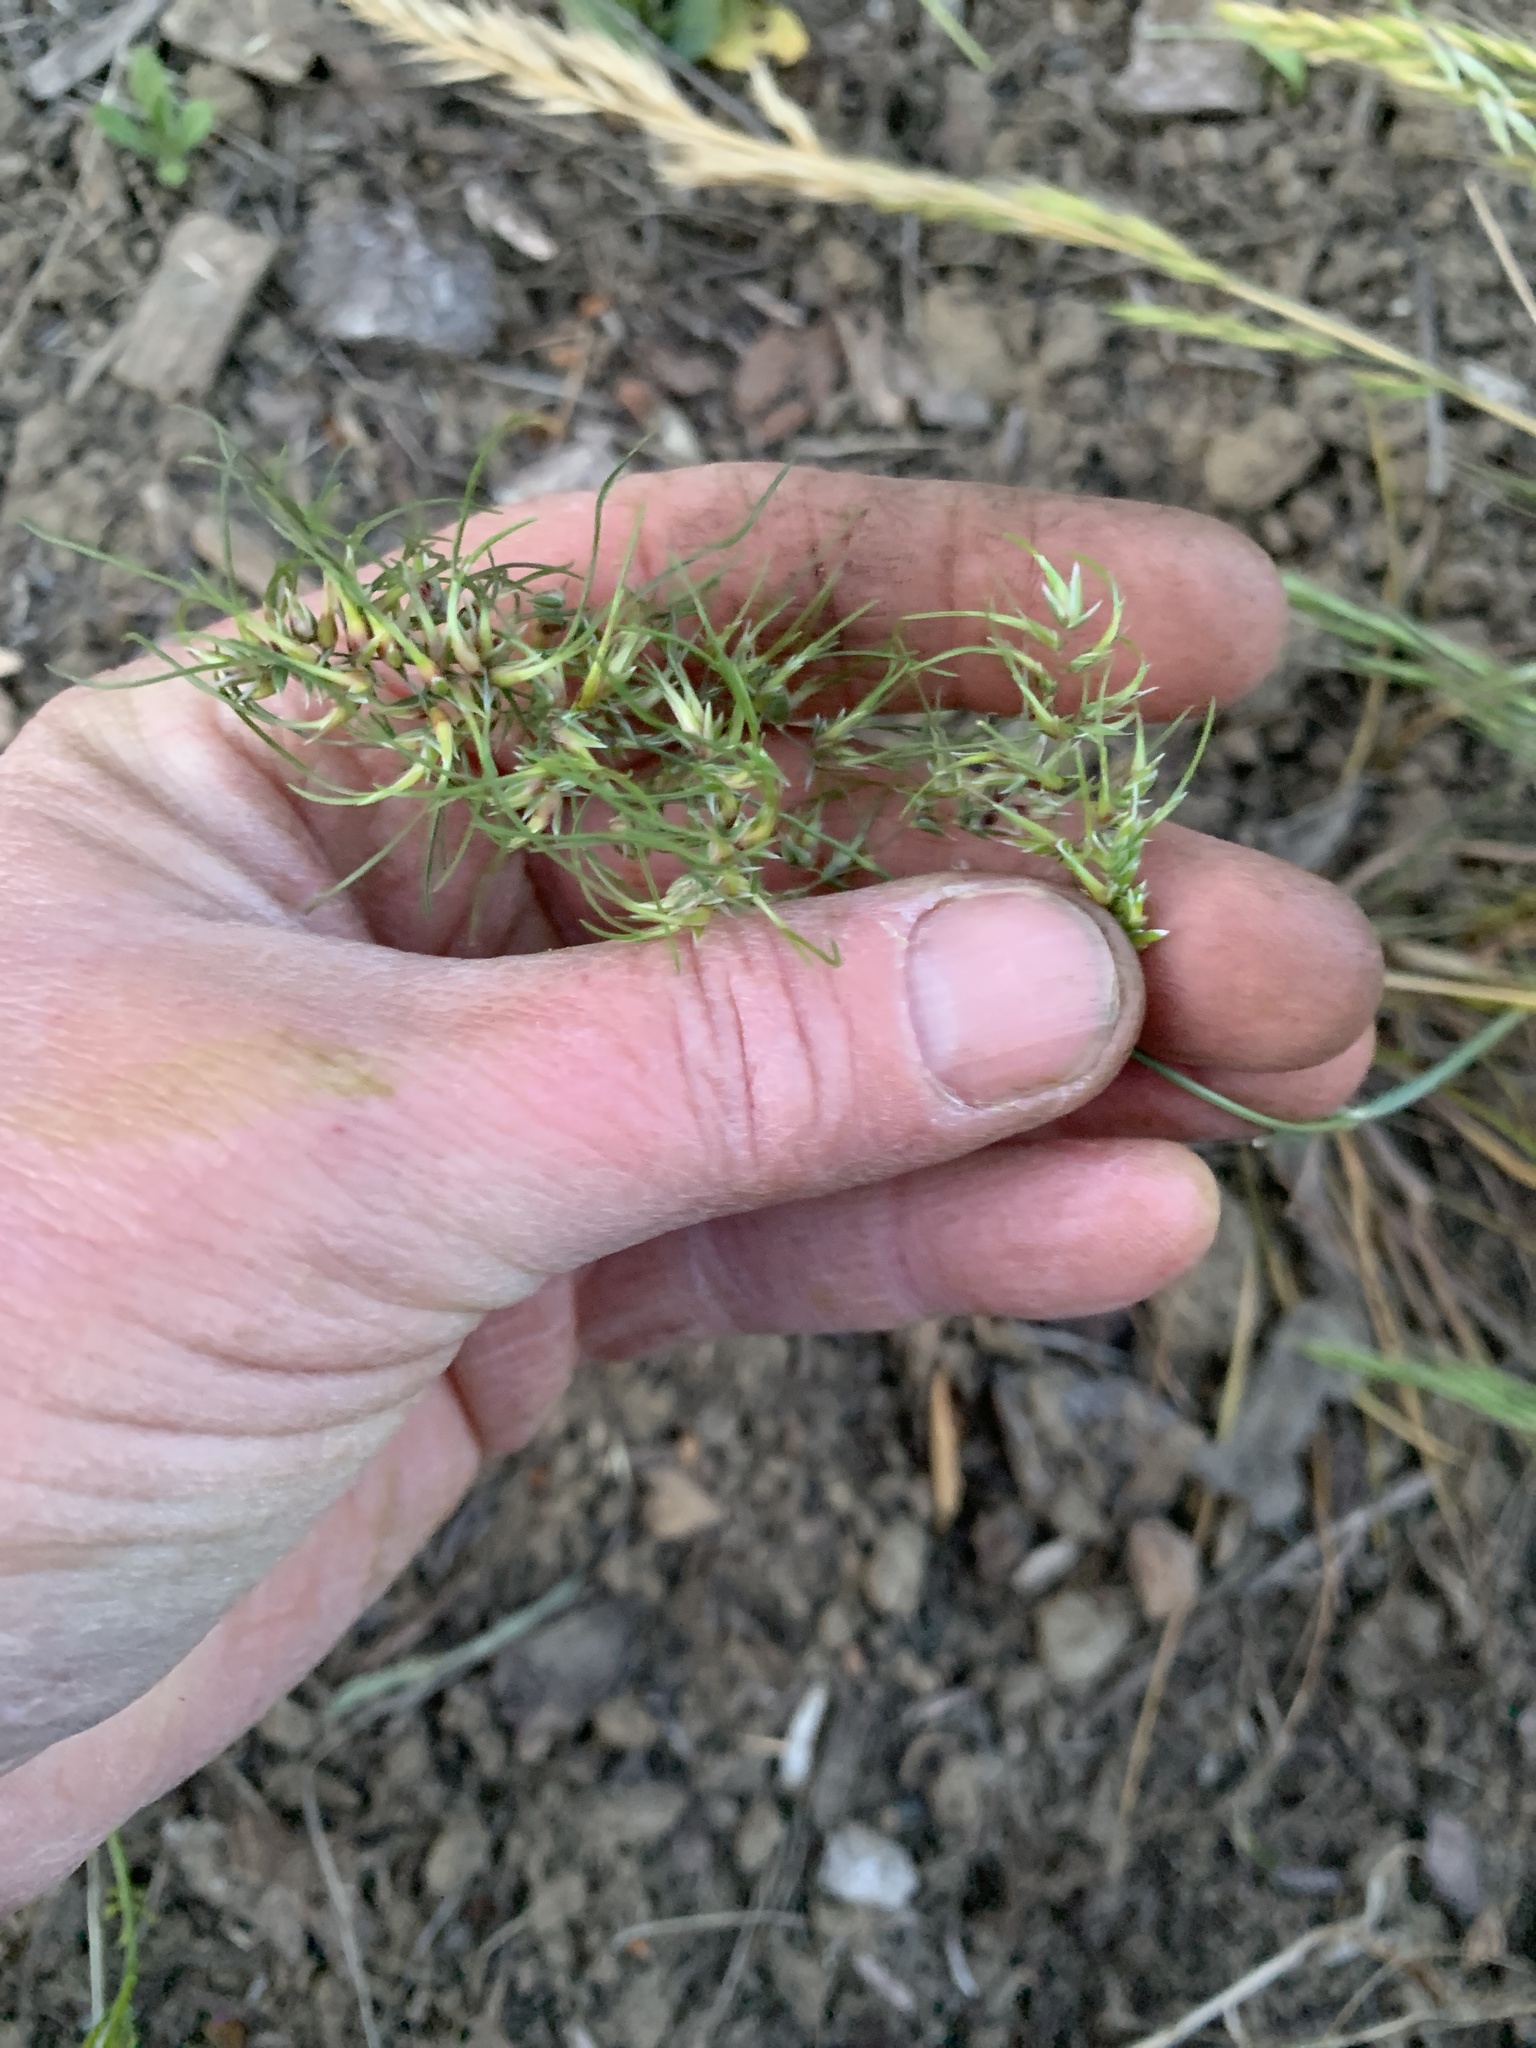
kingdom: Plantae
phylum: Tracheophyta
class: Liliopsida
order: Poales
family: Poaceae
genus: Poa
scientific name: Poa bulbosa
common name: Bulbous bluegrass
